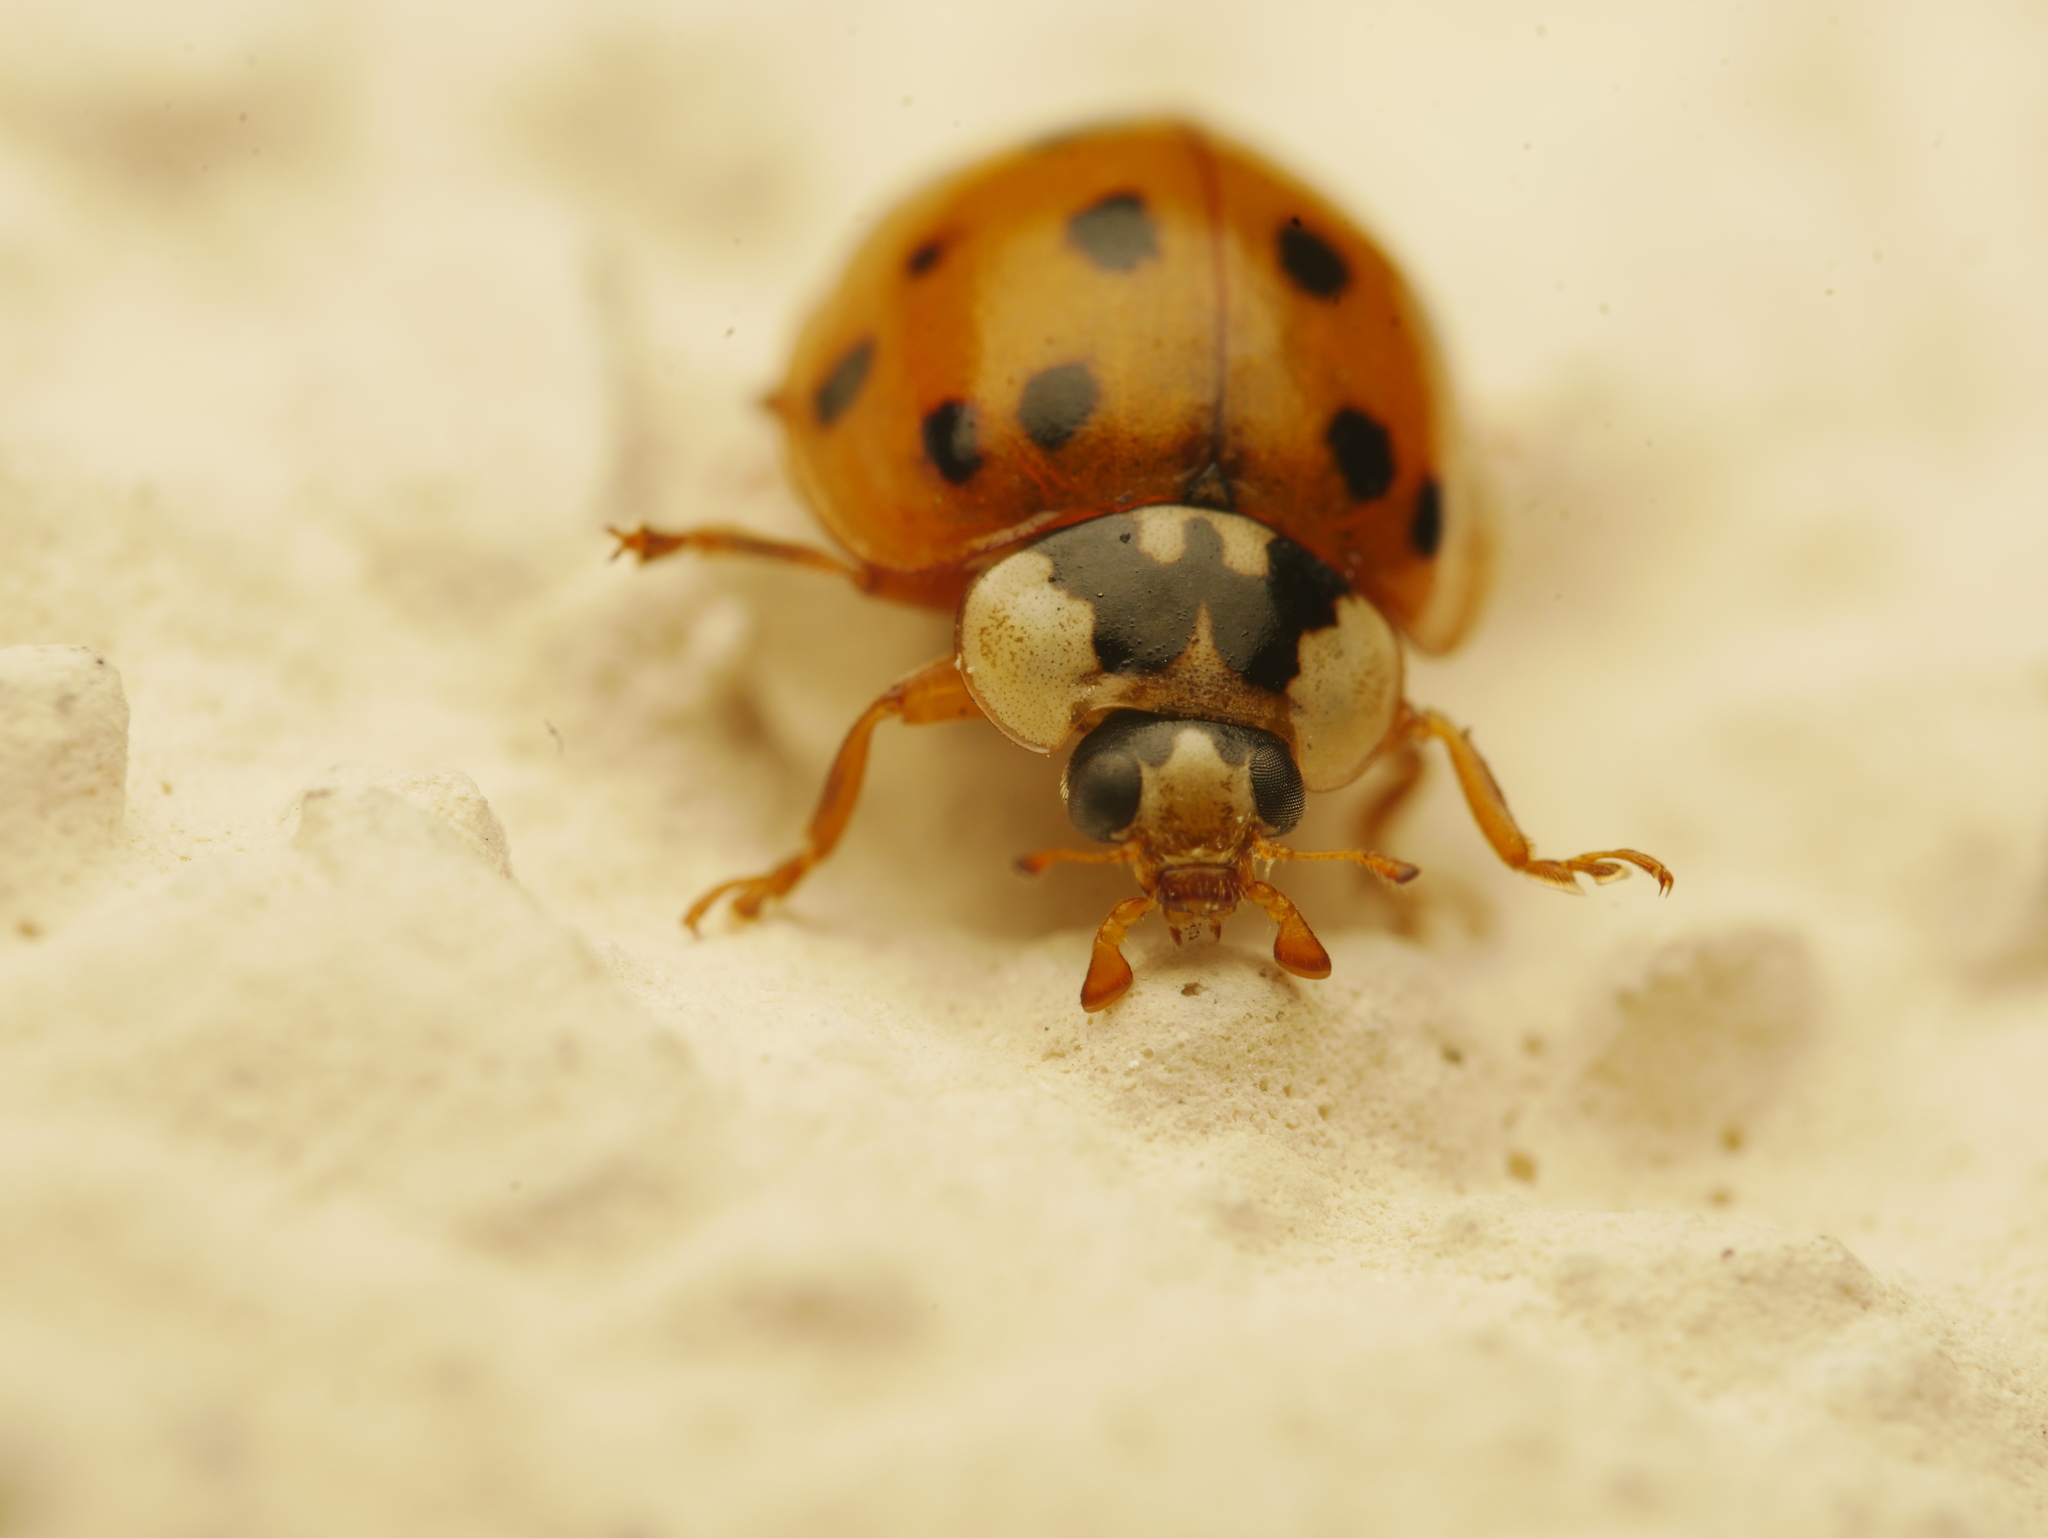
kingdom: Animalia
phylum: Arthropoda
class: Insecta
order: Coleoptera
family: Coccinellidae
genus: Harmonia
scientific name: Harmonia axyridis
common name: Harlequin ladybird
